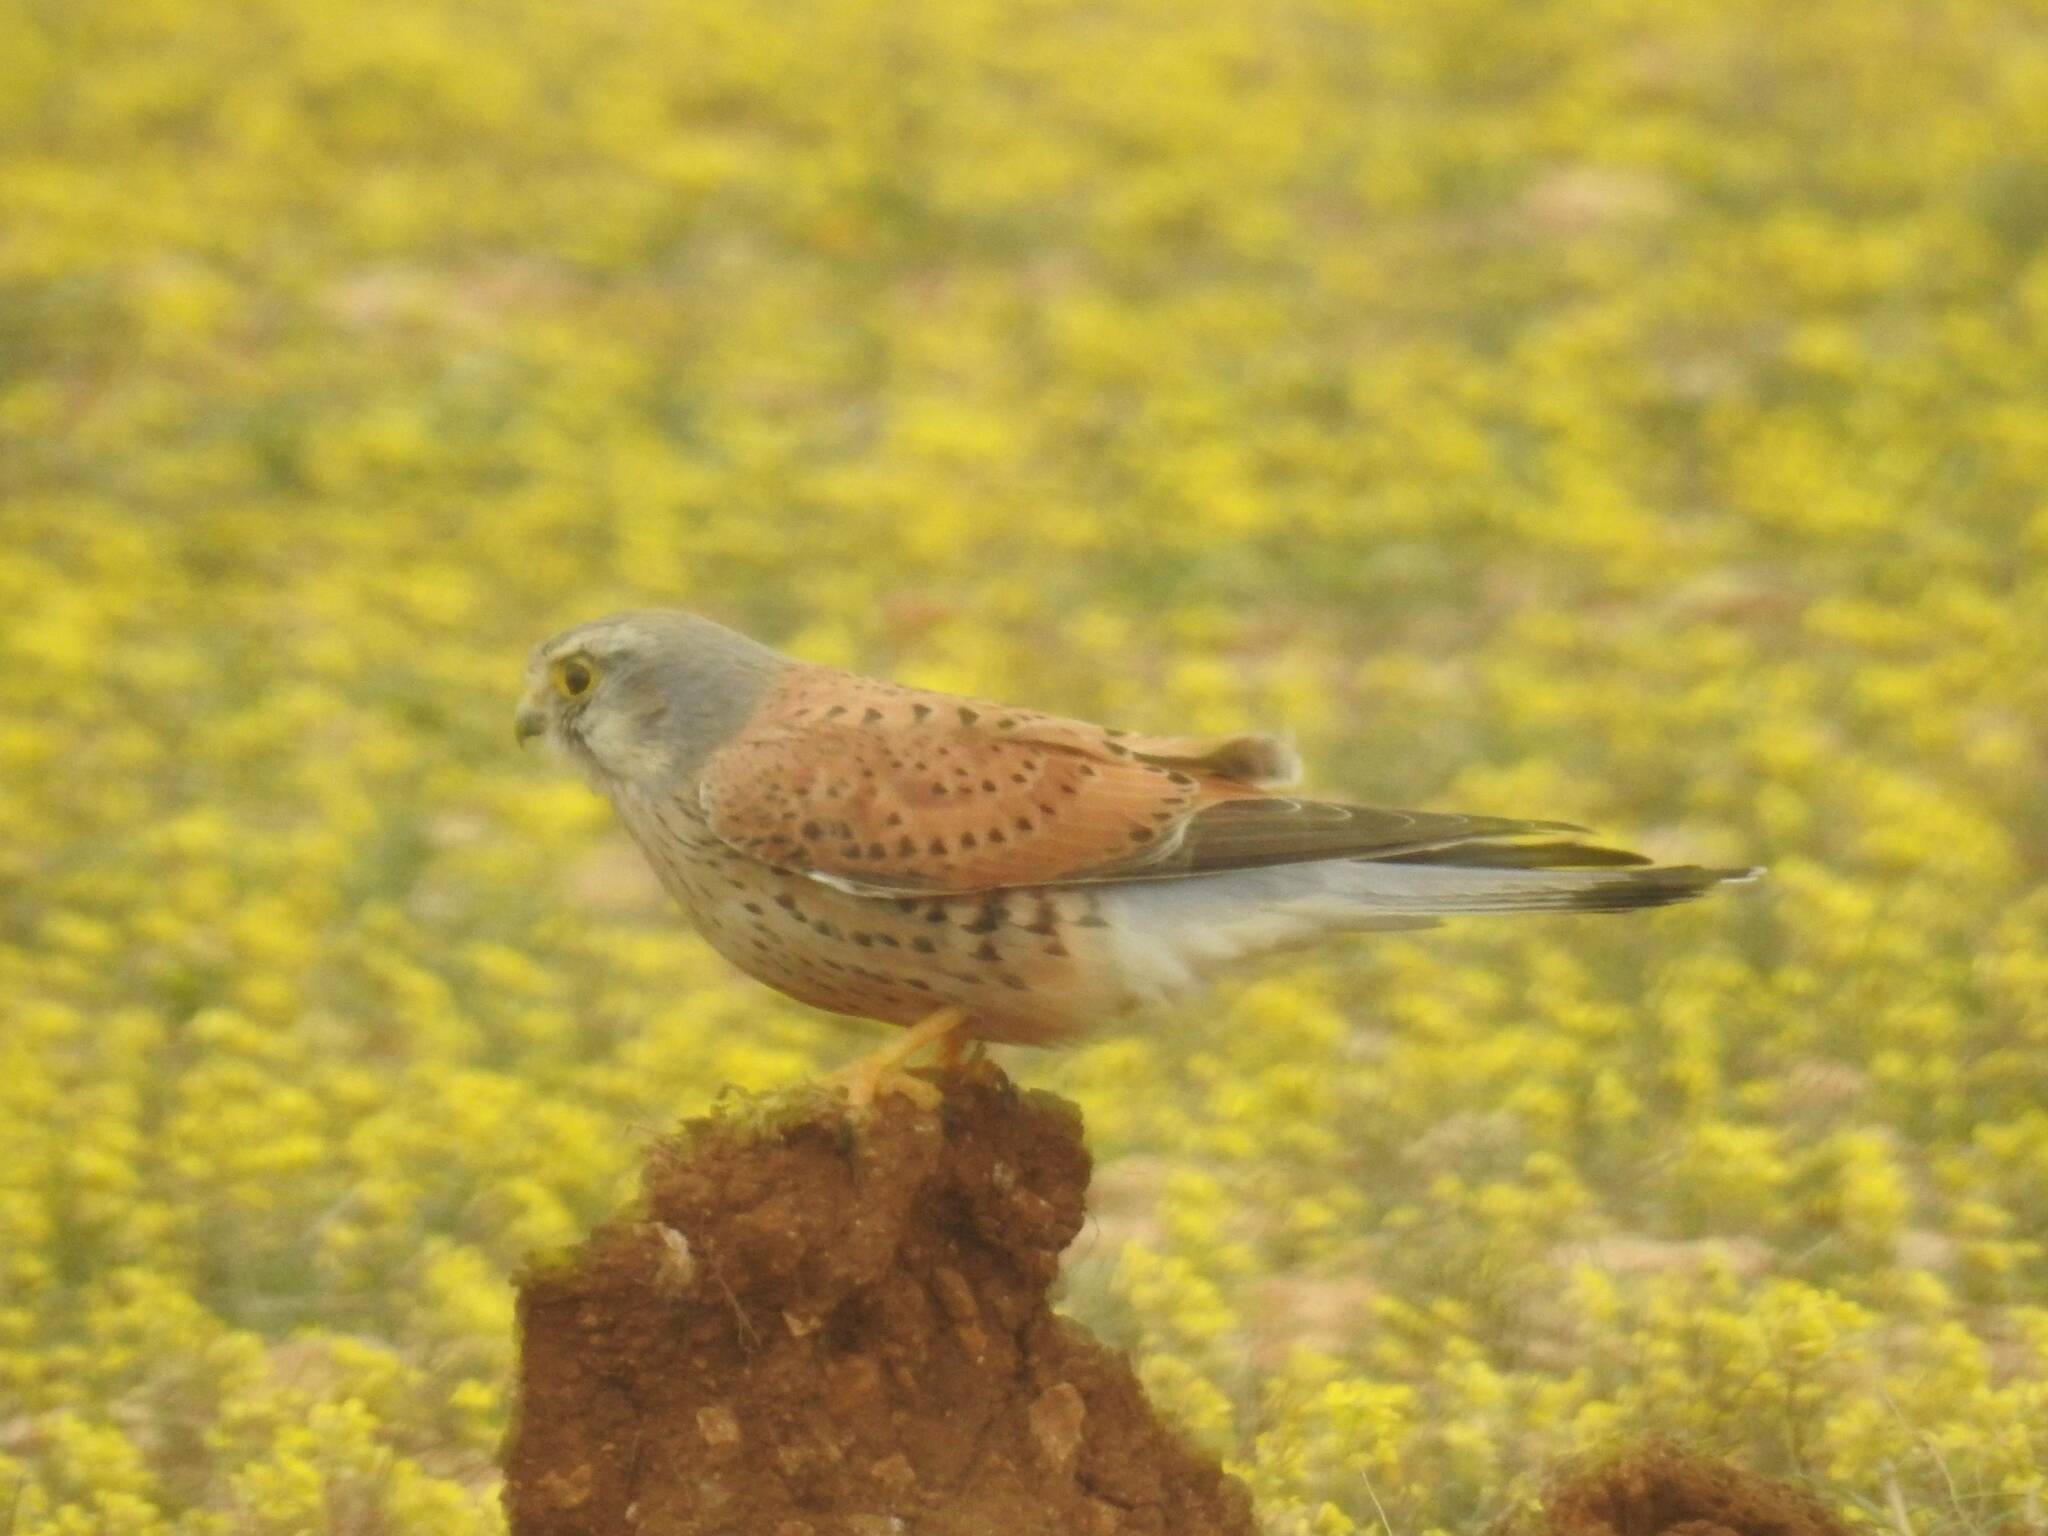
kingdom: Animalia
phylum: Chordata
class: Aves
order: Falconiformes
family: Falconidae
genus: Falco
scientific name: Falco tinnunculus
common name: Common kestrel
